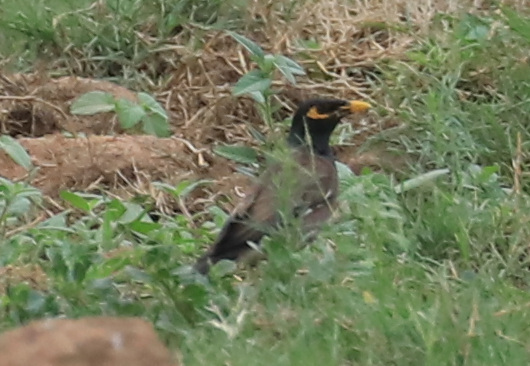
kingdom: Animalia
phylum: Chordata
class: Aves
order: Passeriformes
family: Sturnidae
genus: Acridotheres
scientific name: Acridotheres tristis
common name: Common myna
